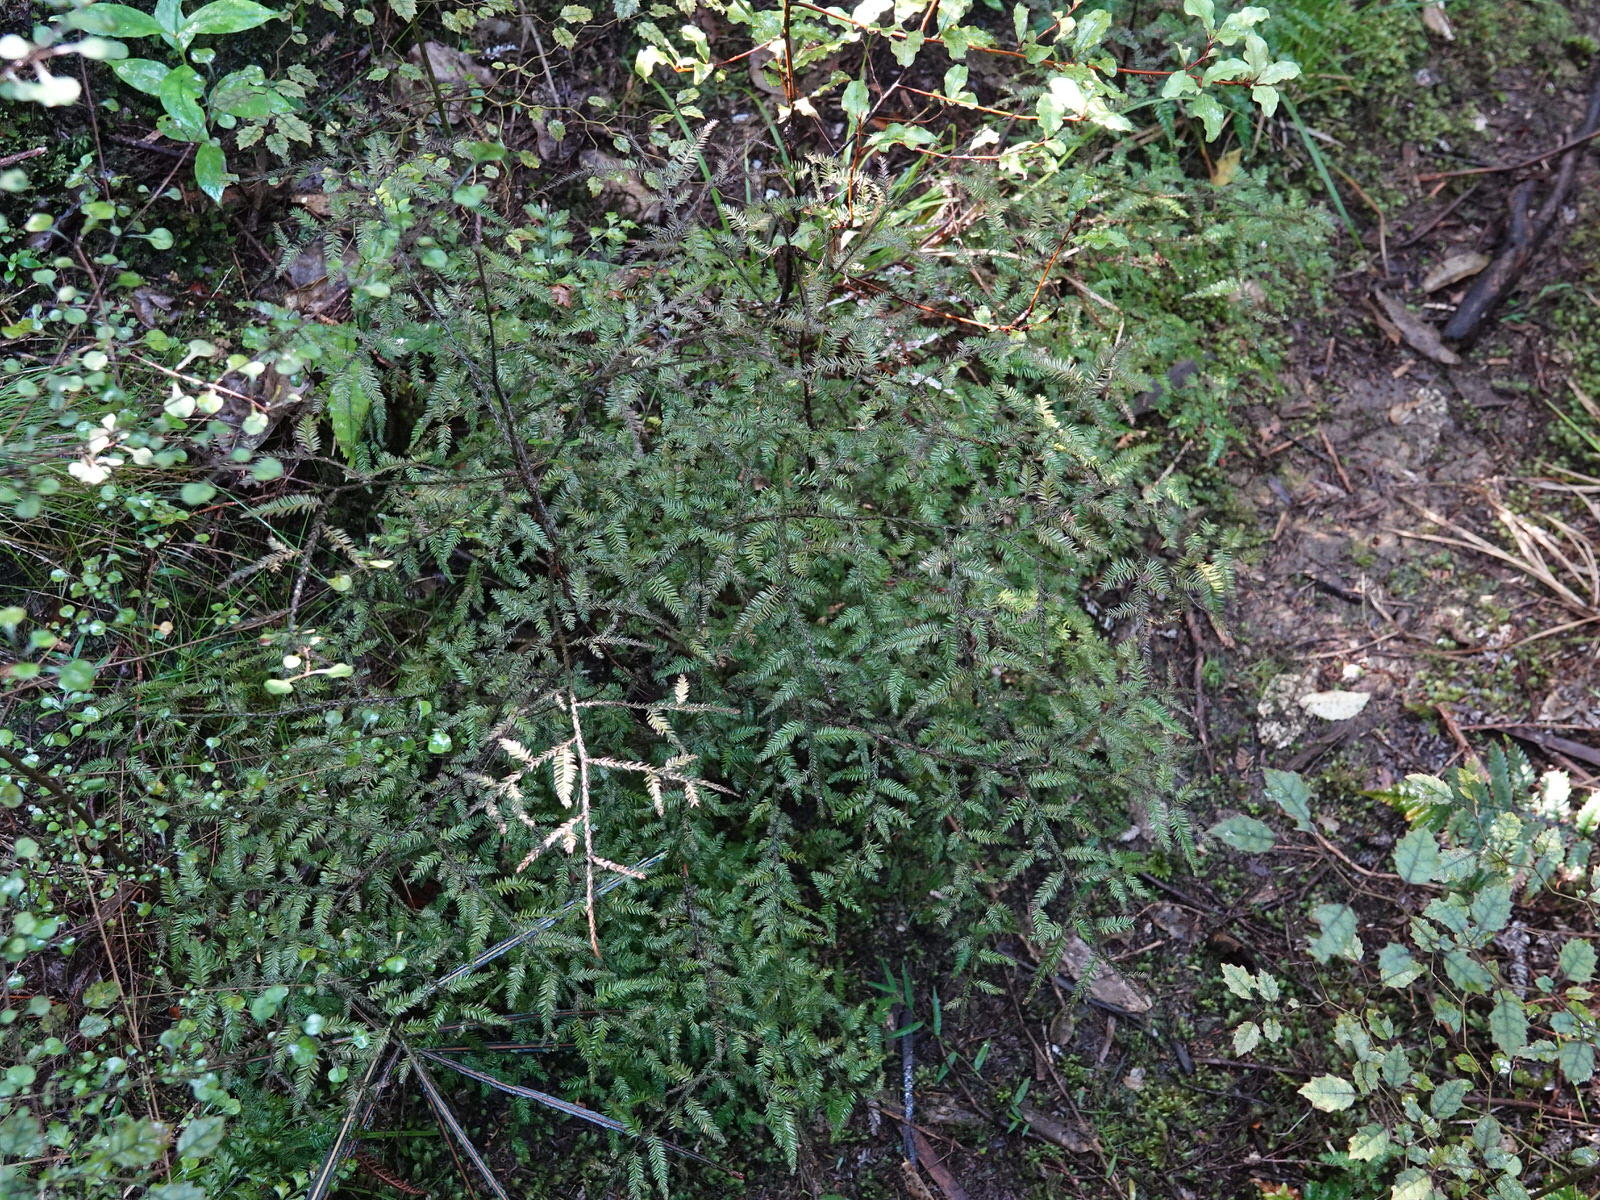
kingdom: Plantae
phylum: Tracheophyta
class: Pinopsida
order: Pinales
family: Podocarpaceae
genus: Dacrycarpus
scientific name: Dacrycarpus dacrydioides
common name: White pine
